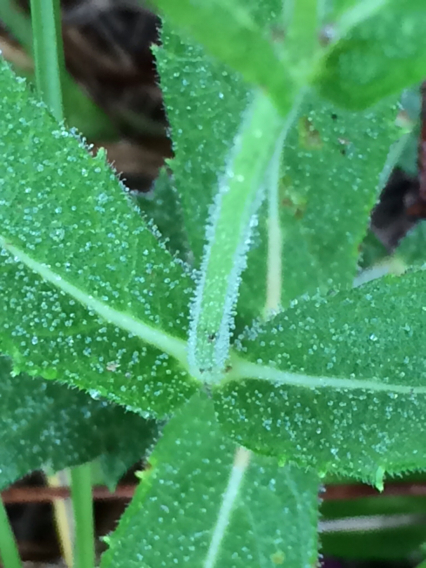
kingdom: Plantae
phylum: Tracheophyta
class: Magnoliopsida
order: Lamiales
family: Verbenaceae
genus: Verbena
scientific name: Verbena rigida
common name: Slender vervain
